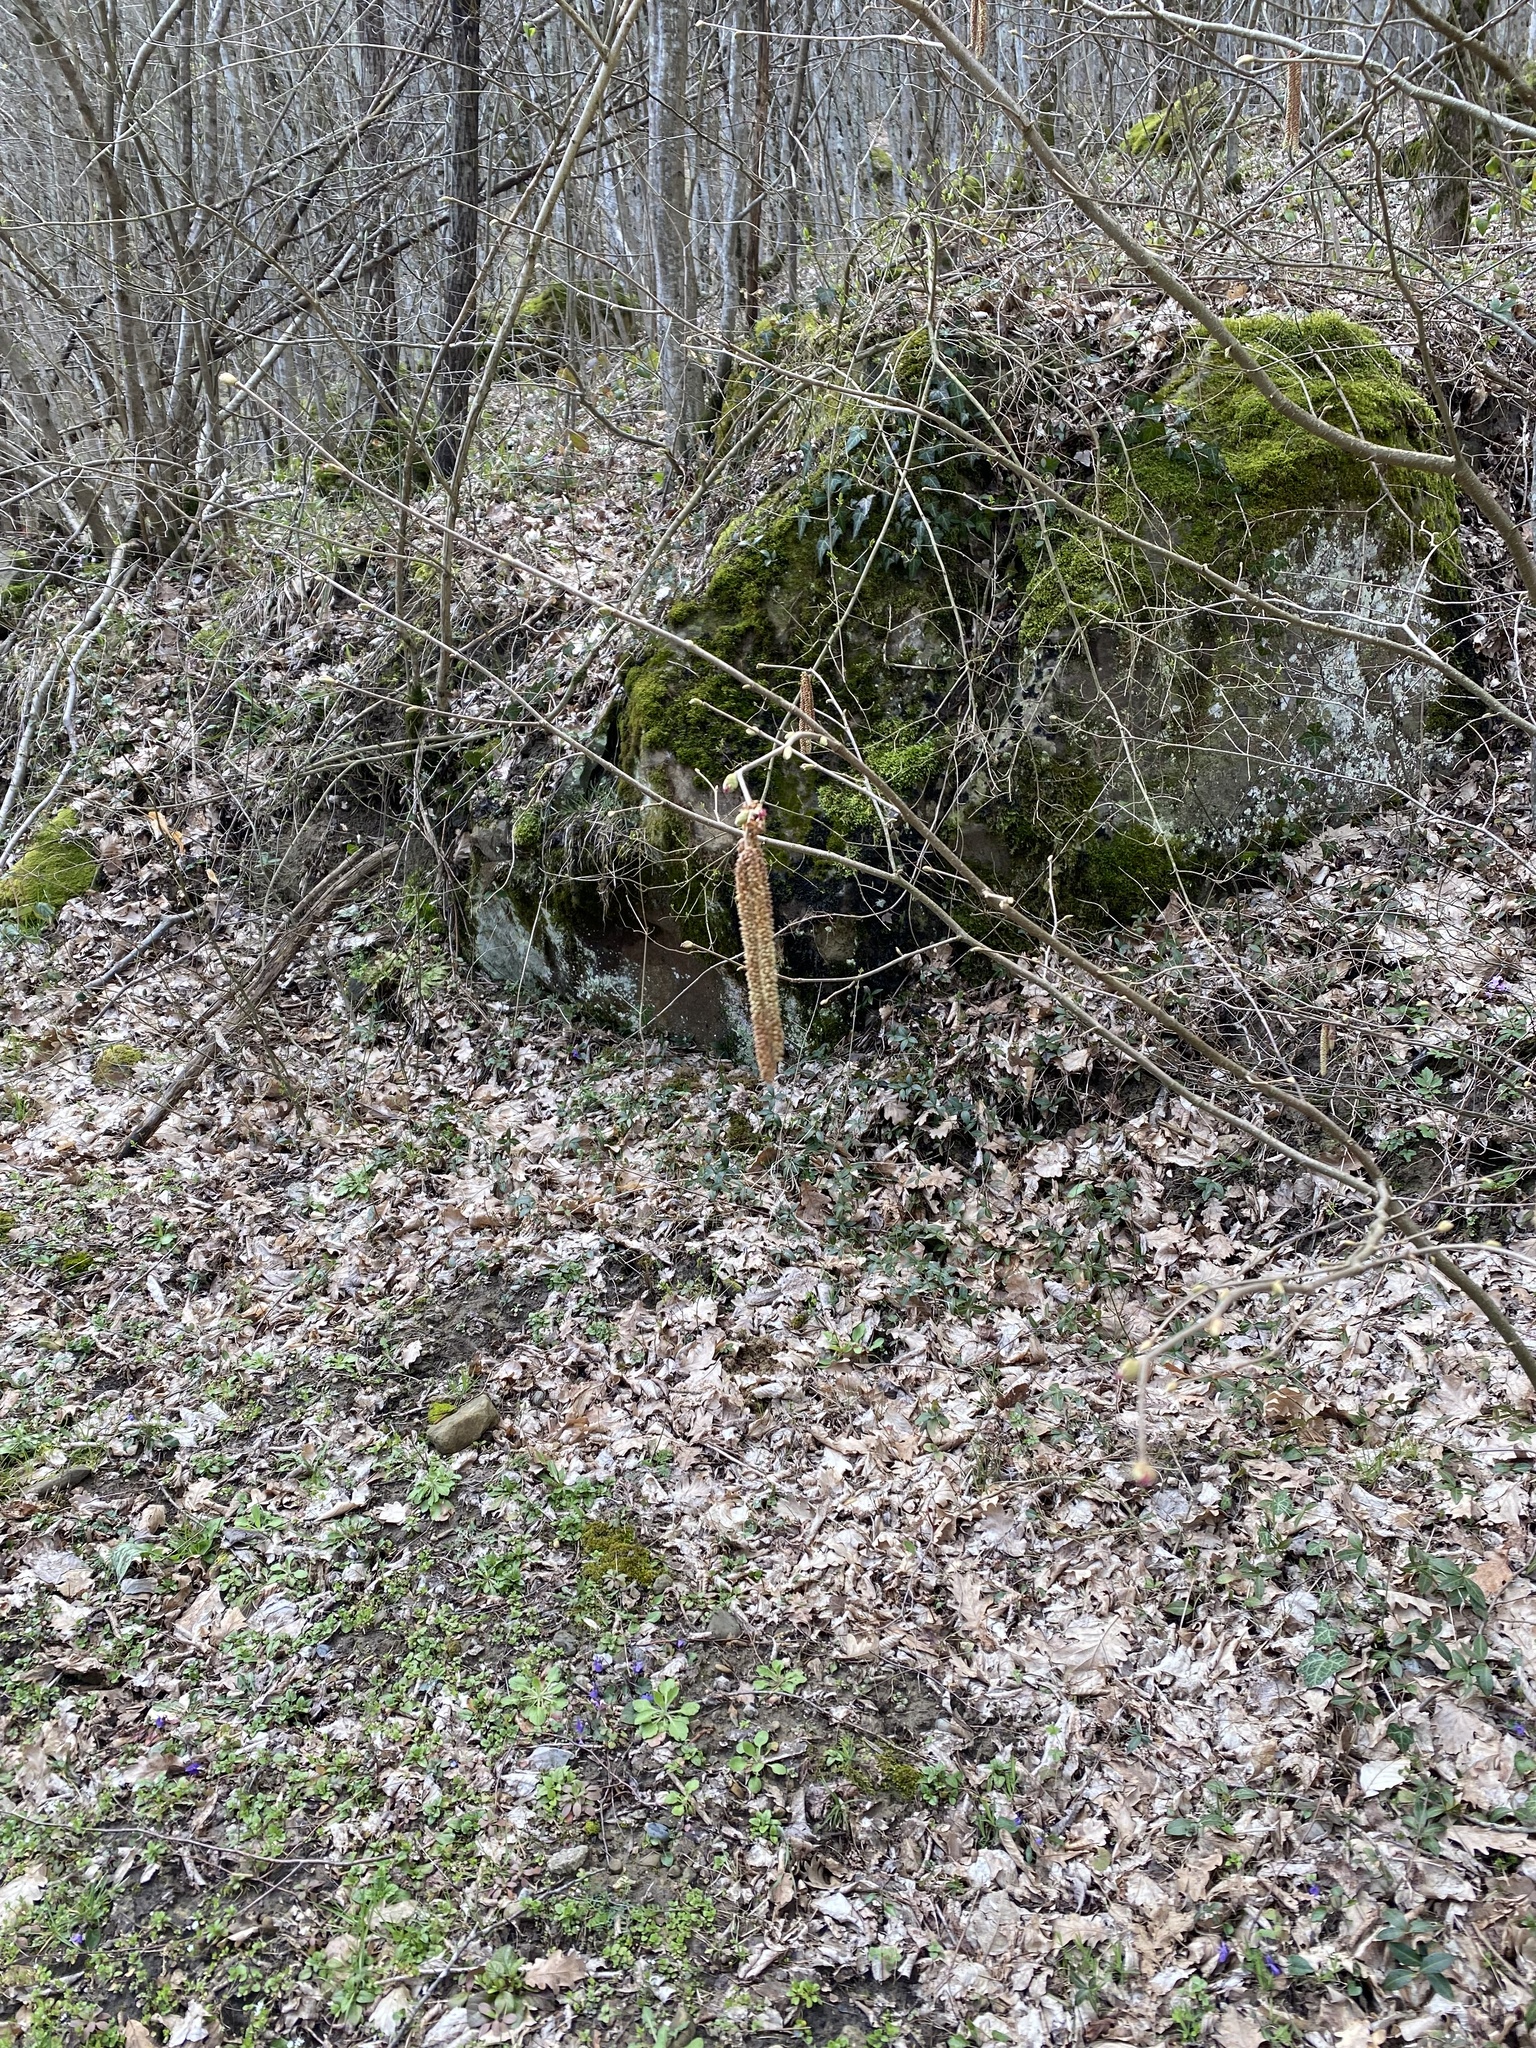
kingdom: Plantae
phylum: Tracheophyta
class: Magnoliopsida
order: Fagales
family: Betulaceae
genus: Corylus
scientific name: Corylus avellana
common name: European hazel
